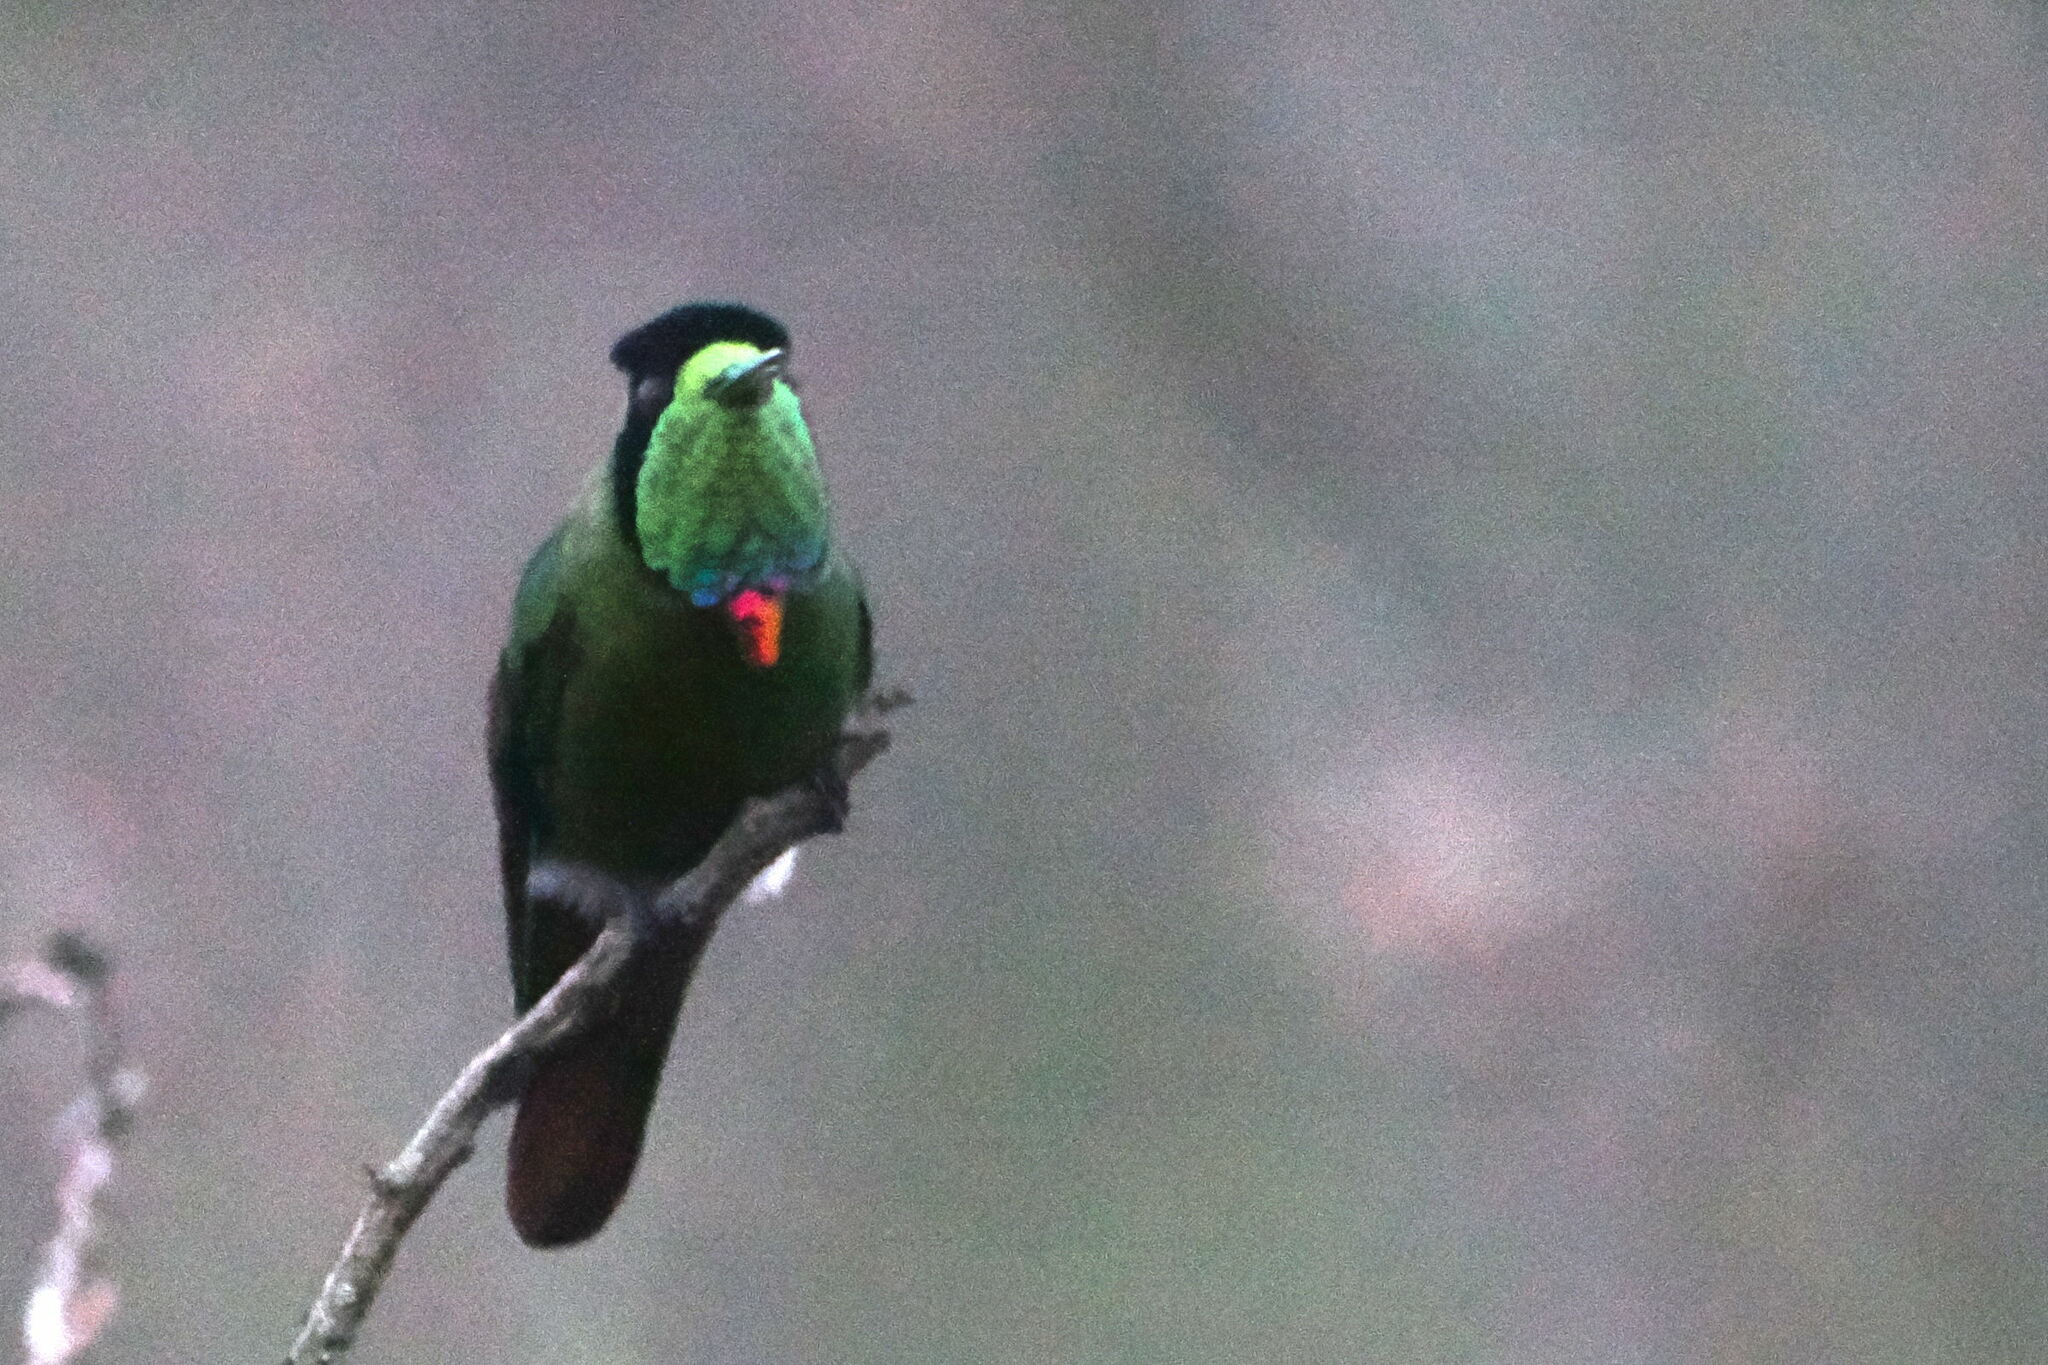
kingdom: Animalia
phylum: Chordata
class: Aves
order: Apodiformes
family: Trochilidae
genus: Augastes
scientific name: Augastes lumachella
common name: Hooded visorbearer
